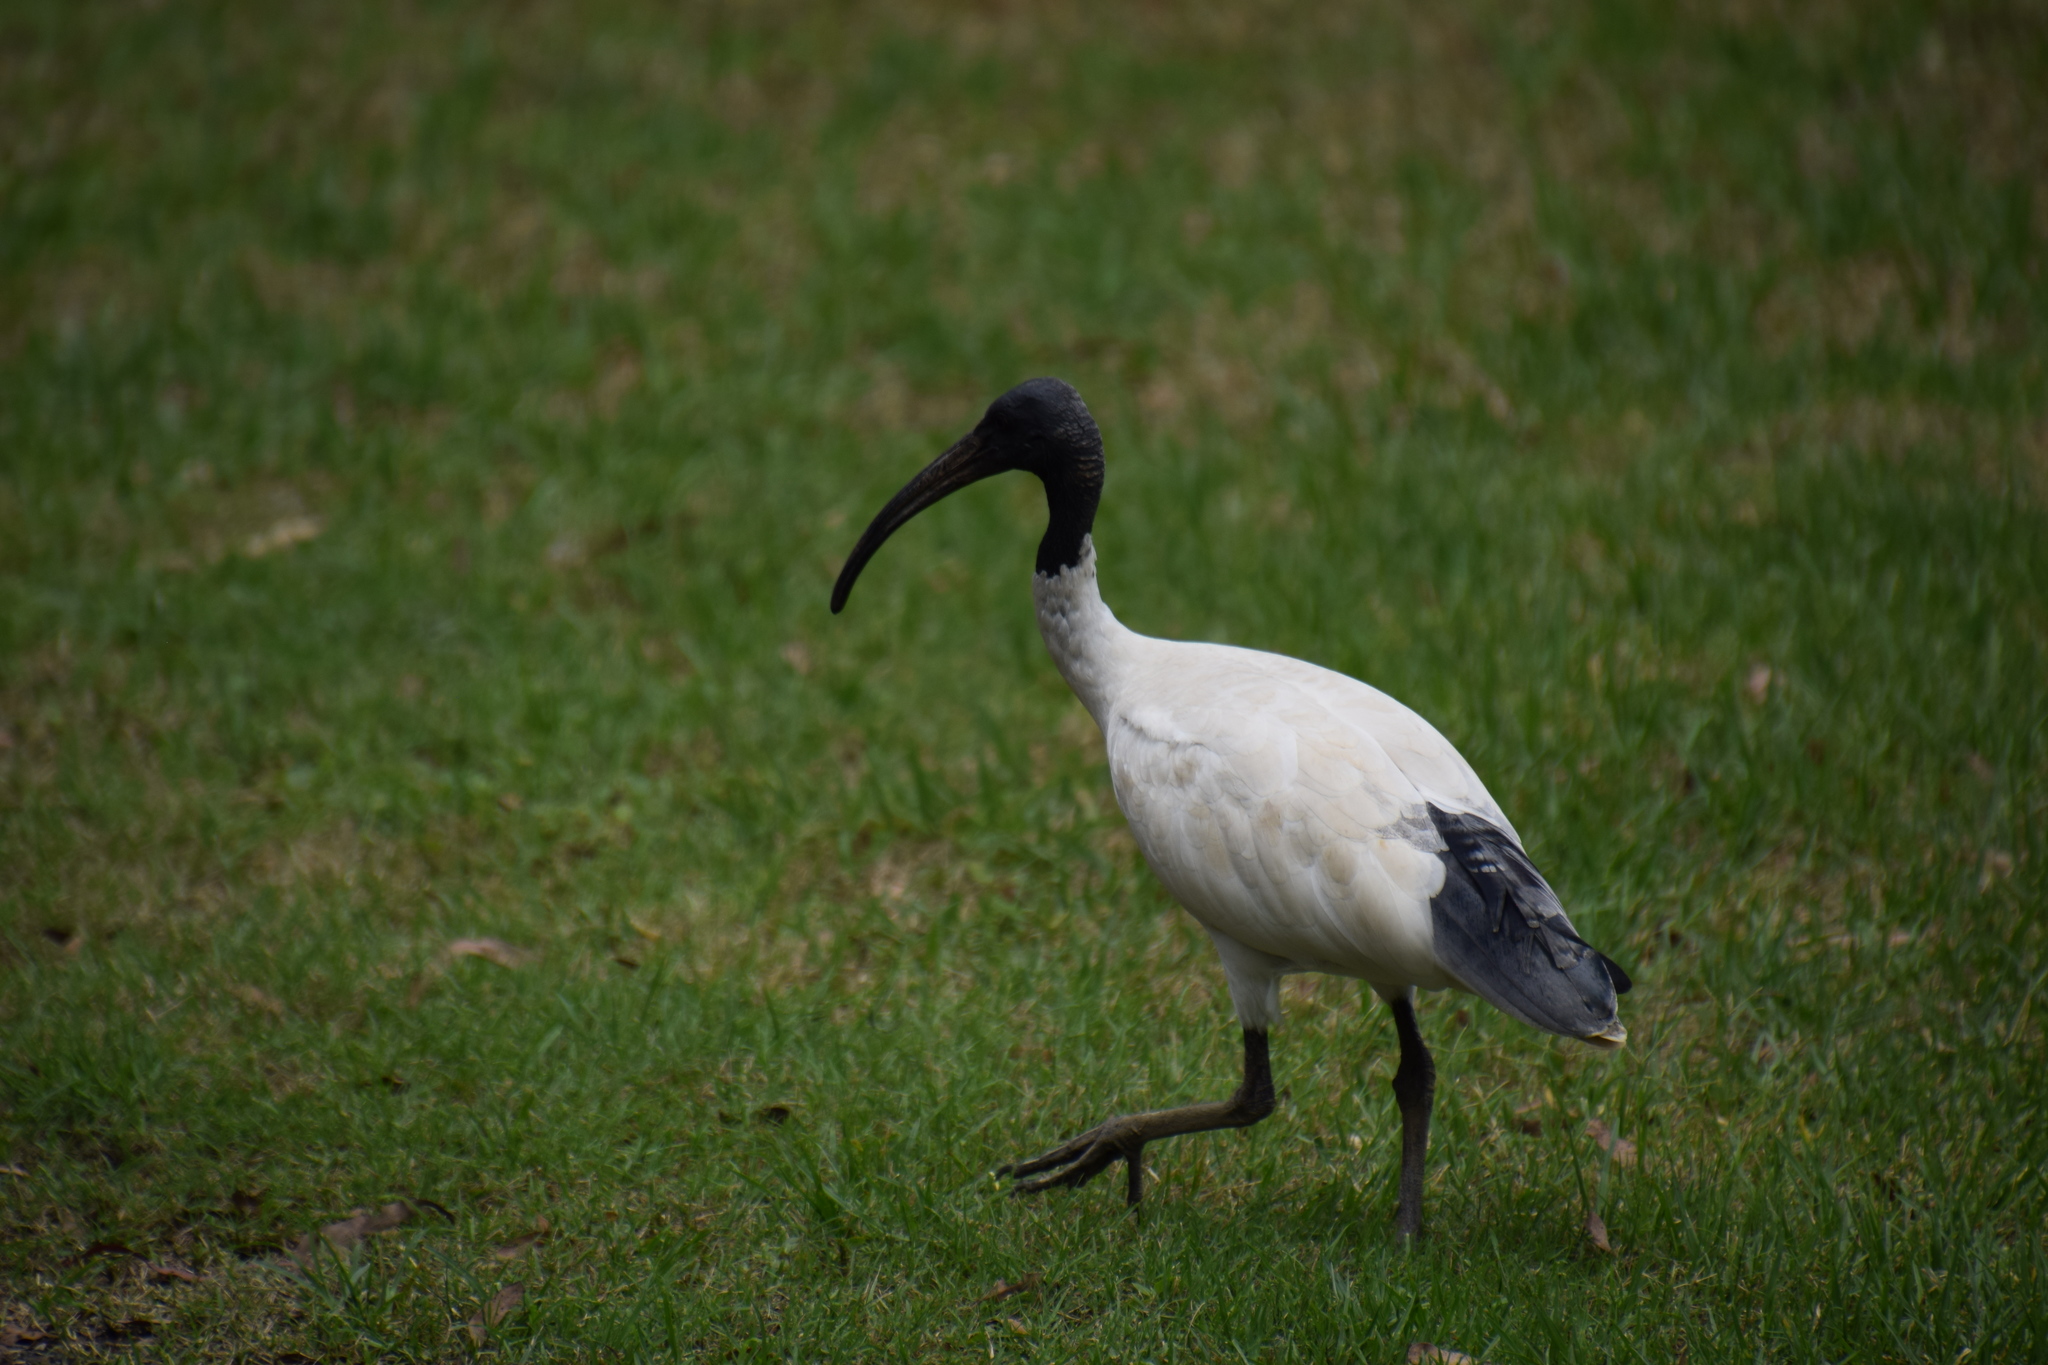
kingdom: Animalia
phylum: Chordata
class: Aves
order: Pelecaniformes
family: Threskiornithidae
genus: Threskiornis
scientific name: Threskiornis molucca
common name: Australian white ibis
